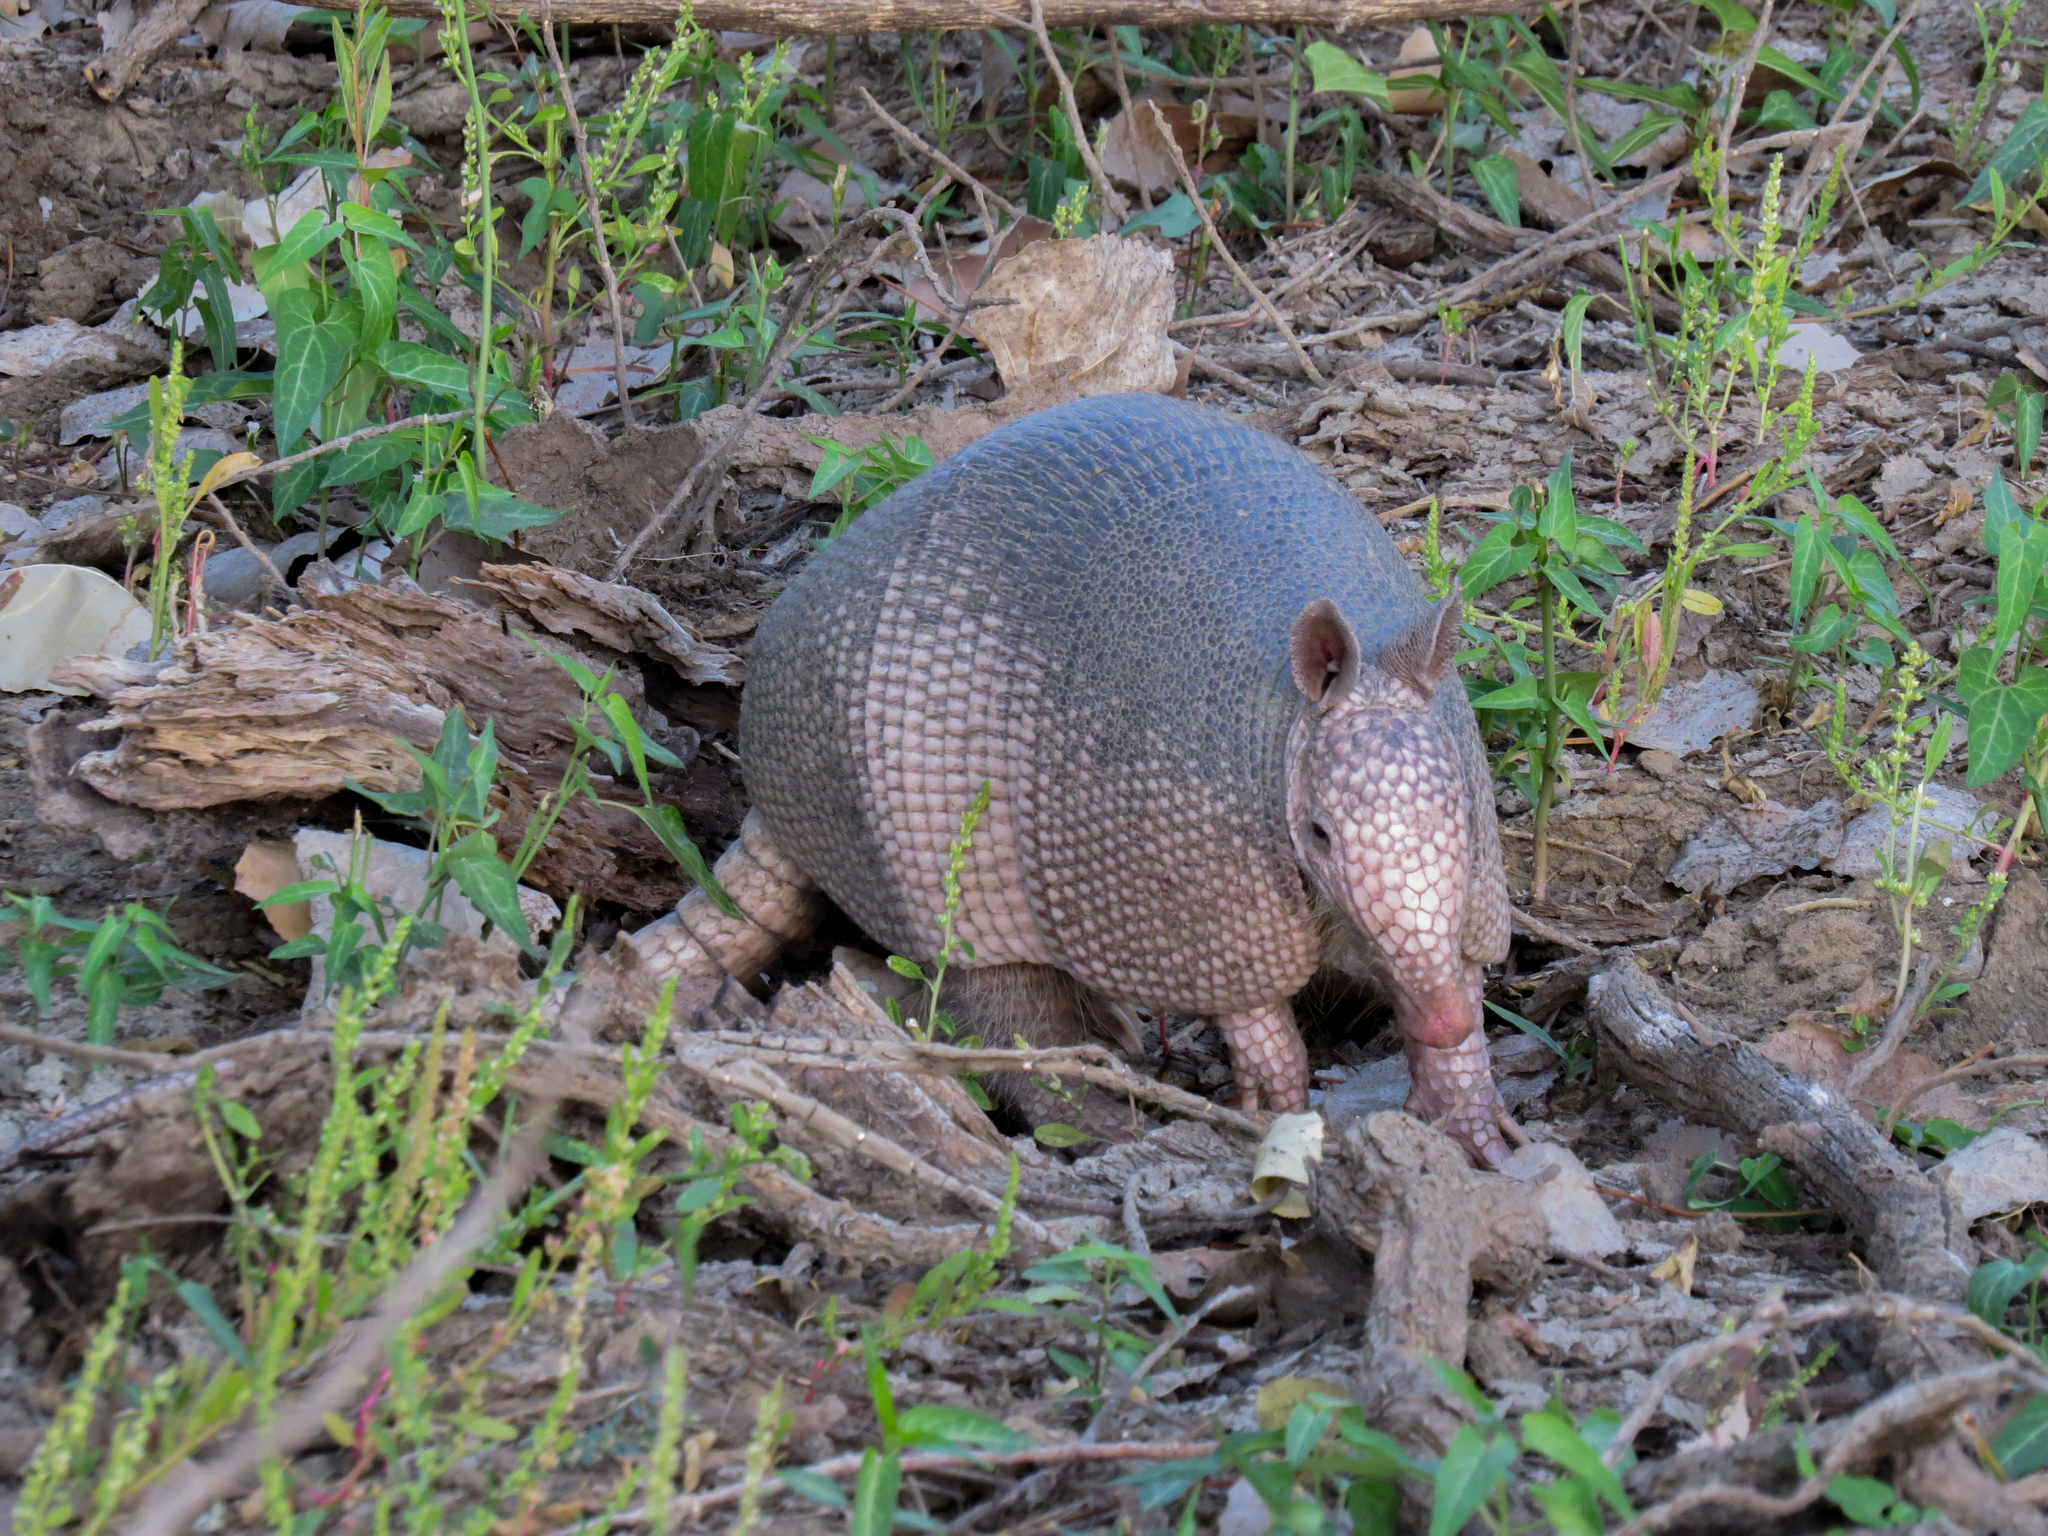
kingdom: Animalia
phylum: Chordata
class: Mammalia
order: Cingulata
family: Dasypodidae
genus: Dasypus
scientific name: Dasypus novemcinctus
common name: Nine-banded armadillo
